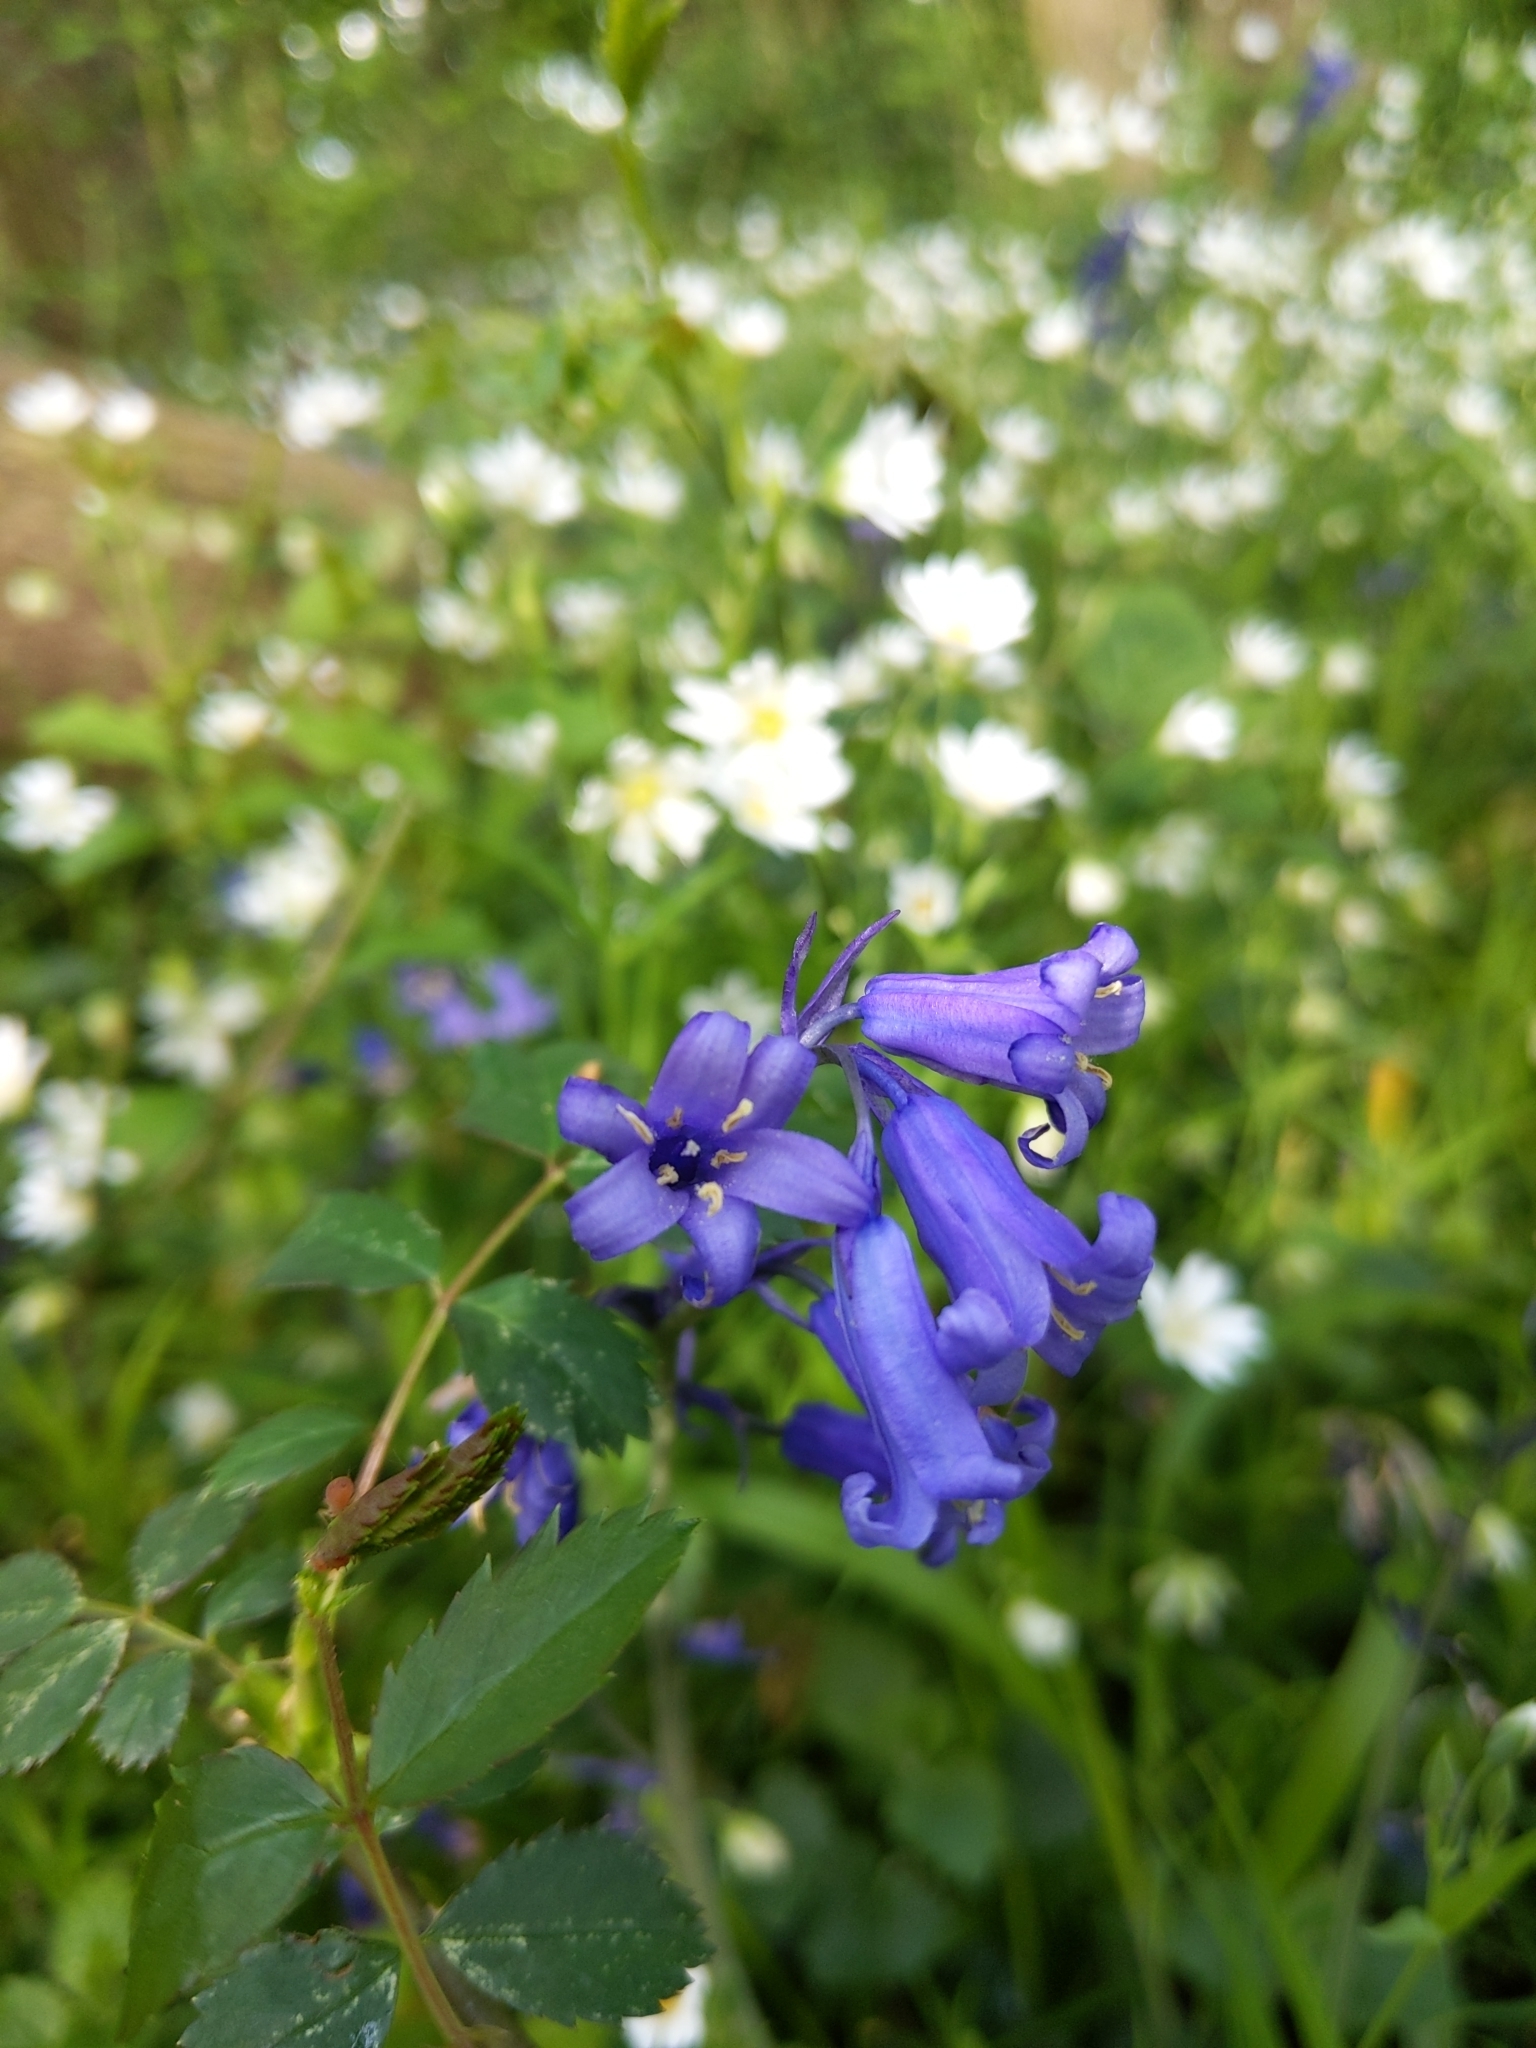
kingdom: Plantae
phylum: Tracheophyta
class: Liliopsida
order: Asparagales
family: Asparagaceae
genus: Hyacinthoides
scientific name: Hyacinthoides non-scripta
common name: Bluebell
